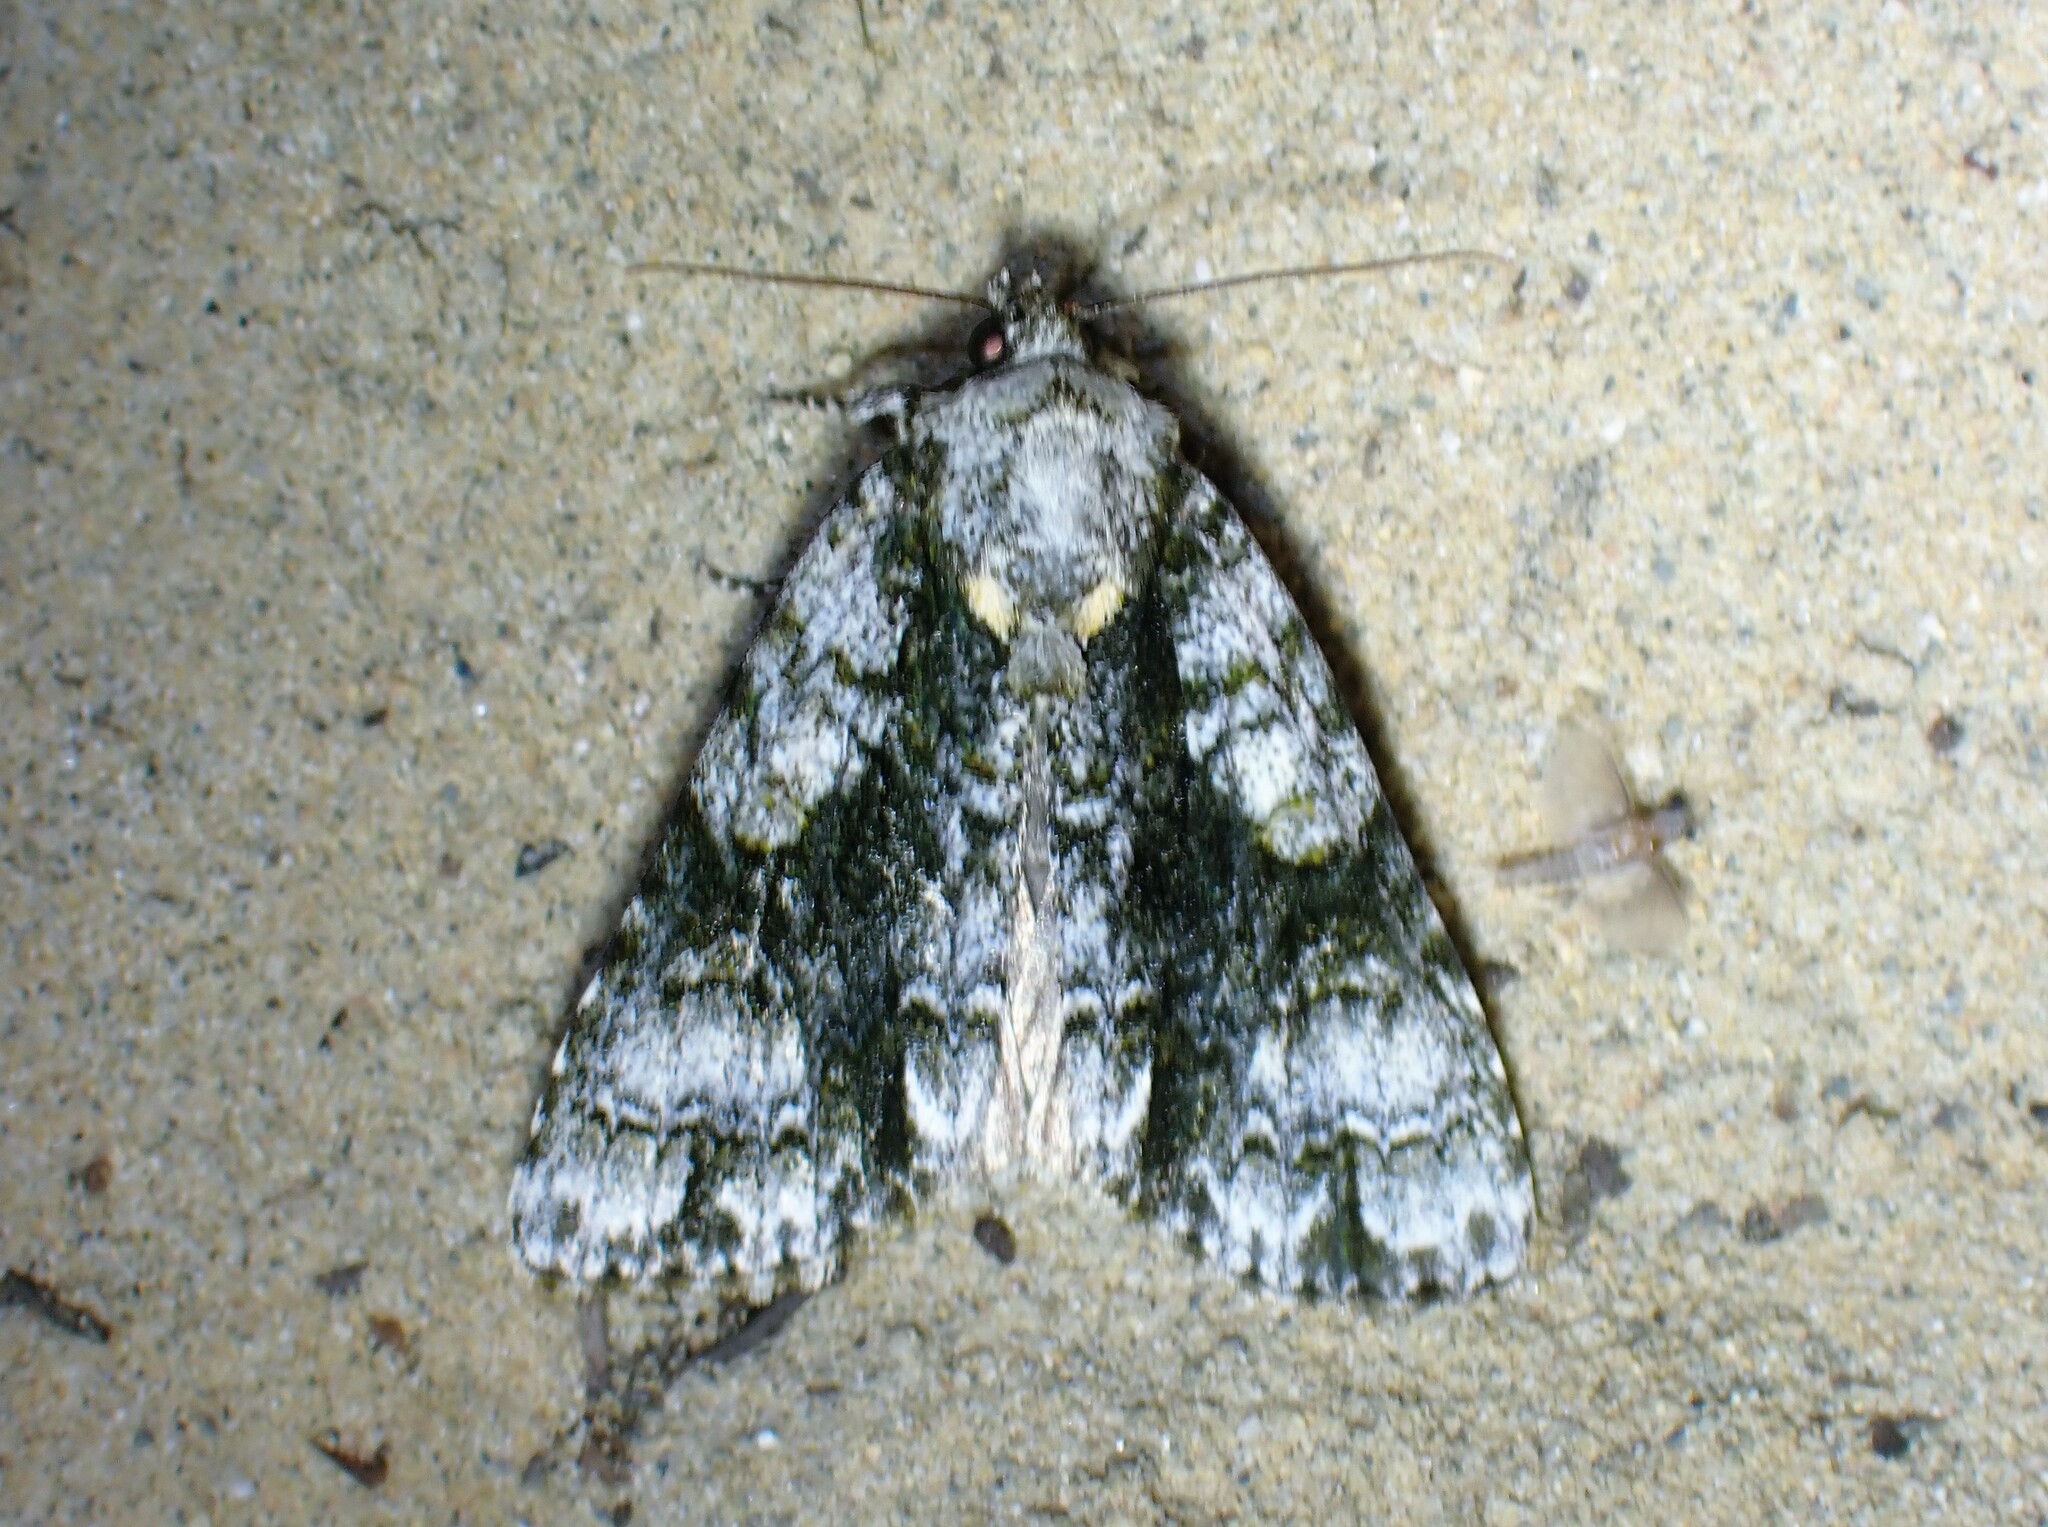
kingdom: Animalia
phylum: Arthropoda
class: Insecta
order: Lepidoptera
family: Noctuidae
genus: Acronicta
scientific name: Acronicta superans
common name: Splendid dagger
